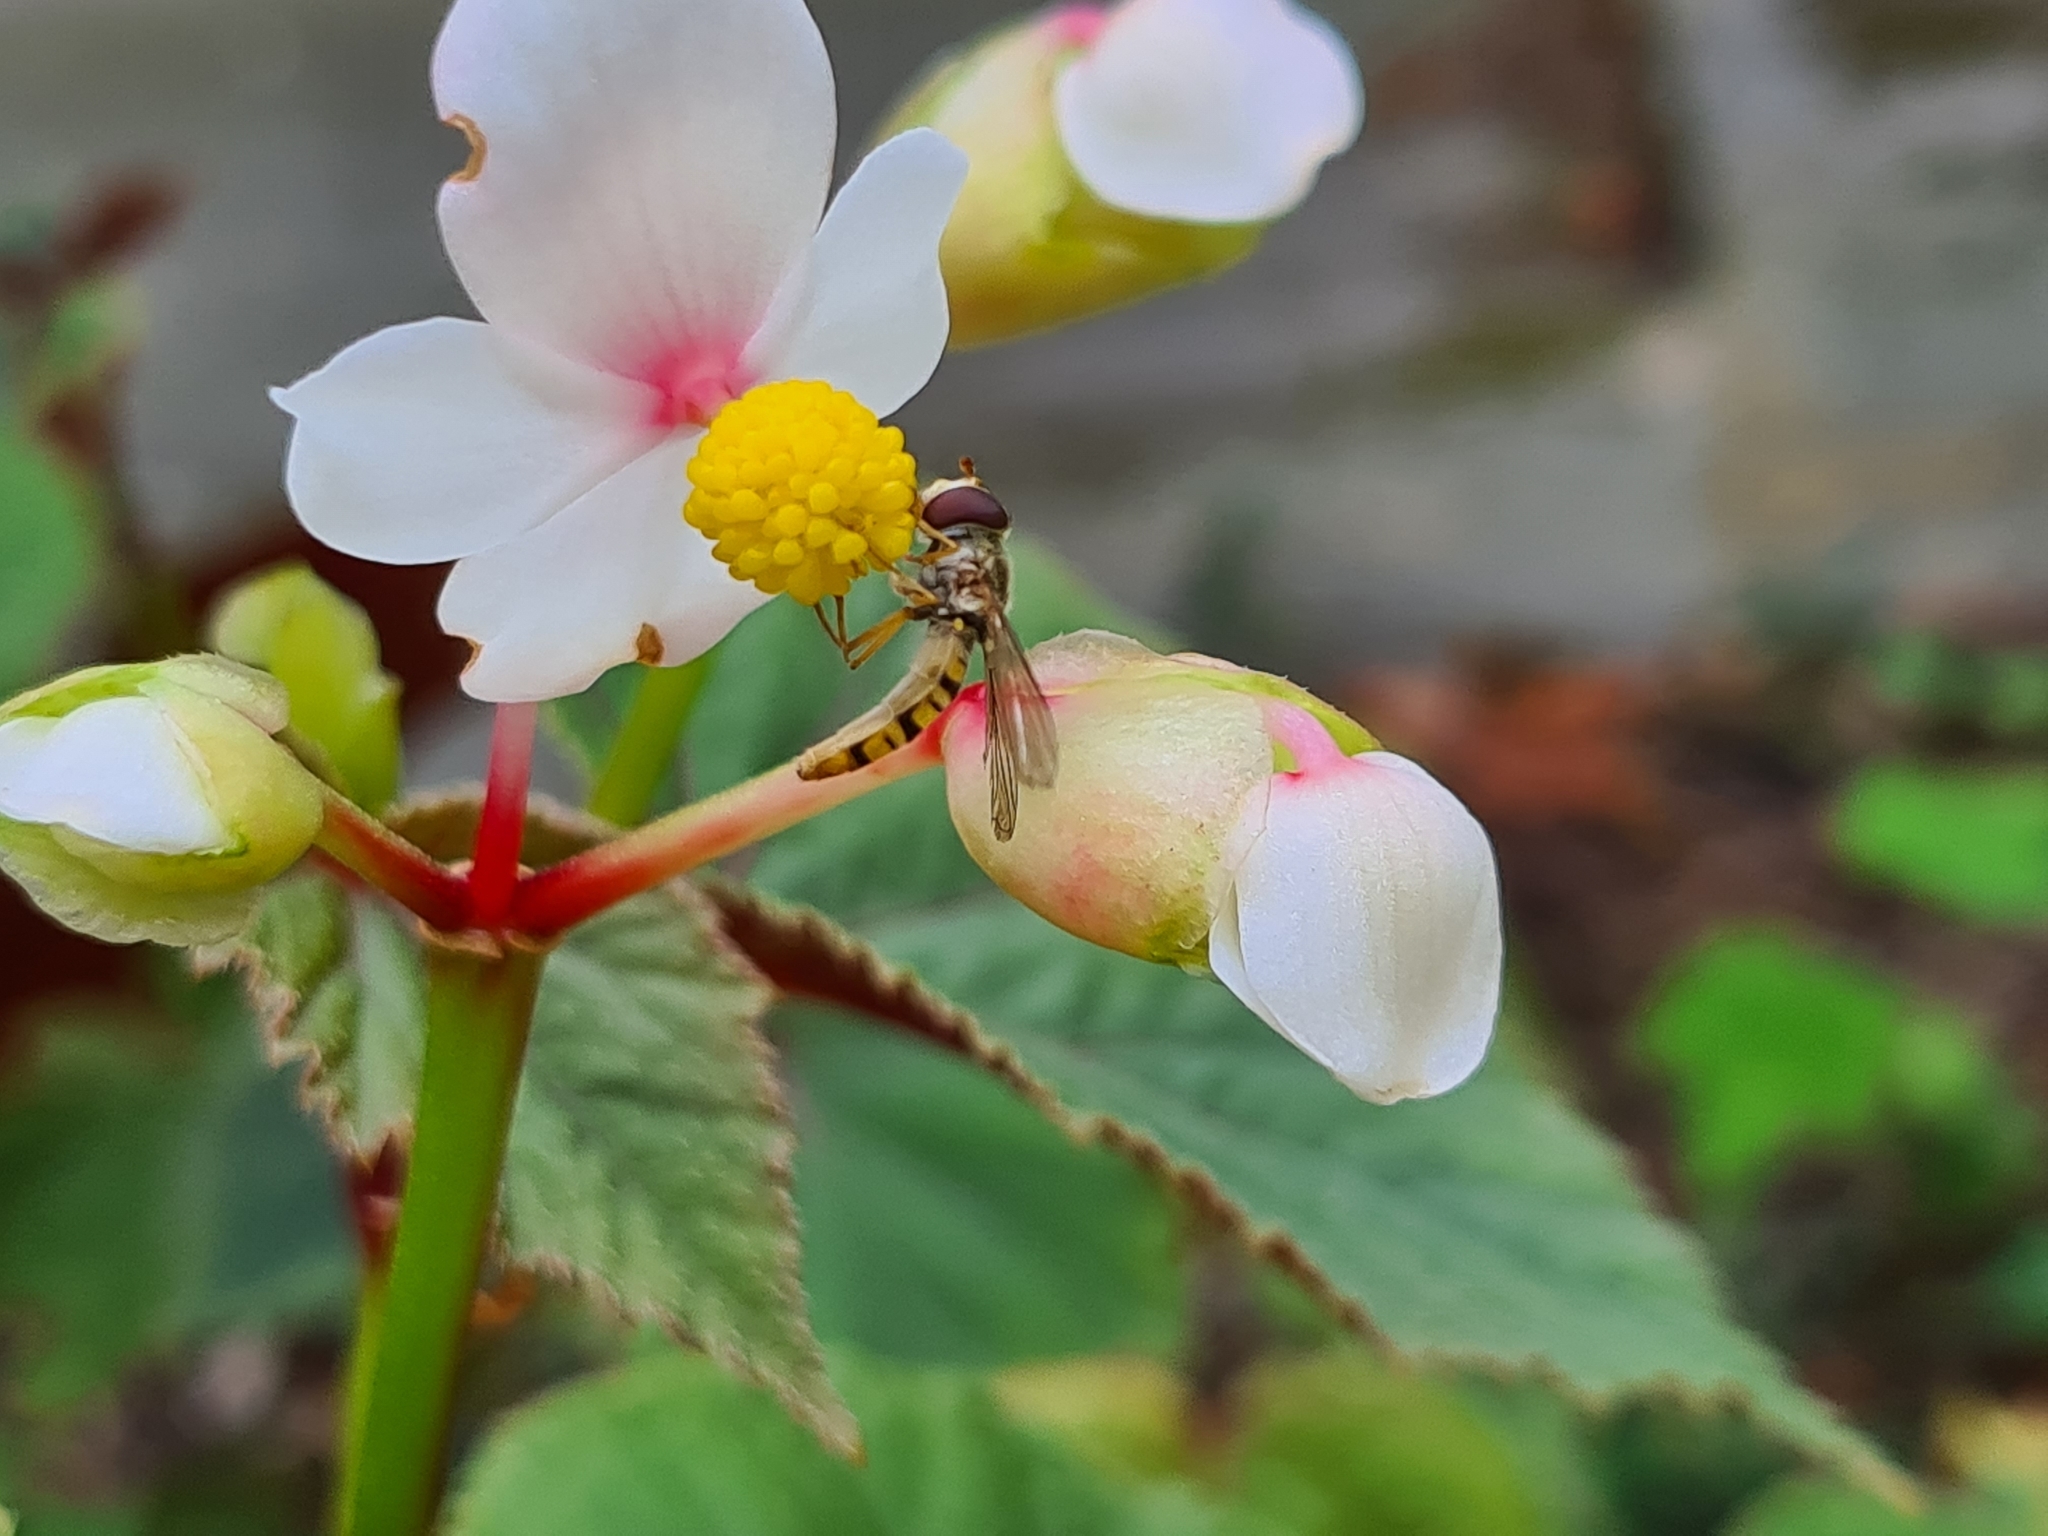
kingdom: Animalia
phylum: Arthropoda
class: Insecta
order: Diptera
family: Syrphidae
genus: Episyrphus
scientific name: Episyrphus balteatus
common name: Marmalade hoverfly
